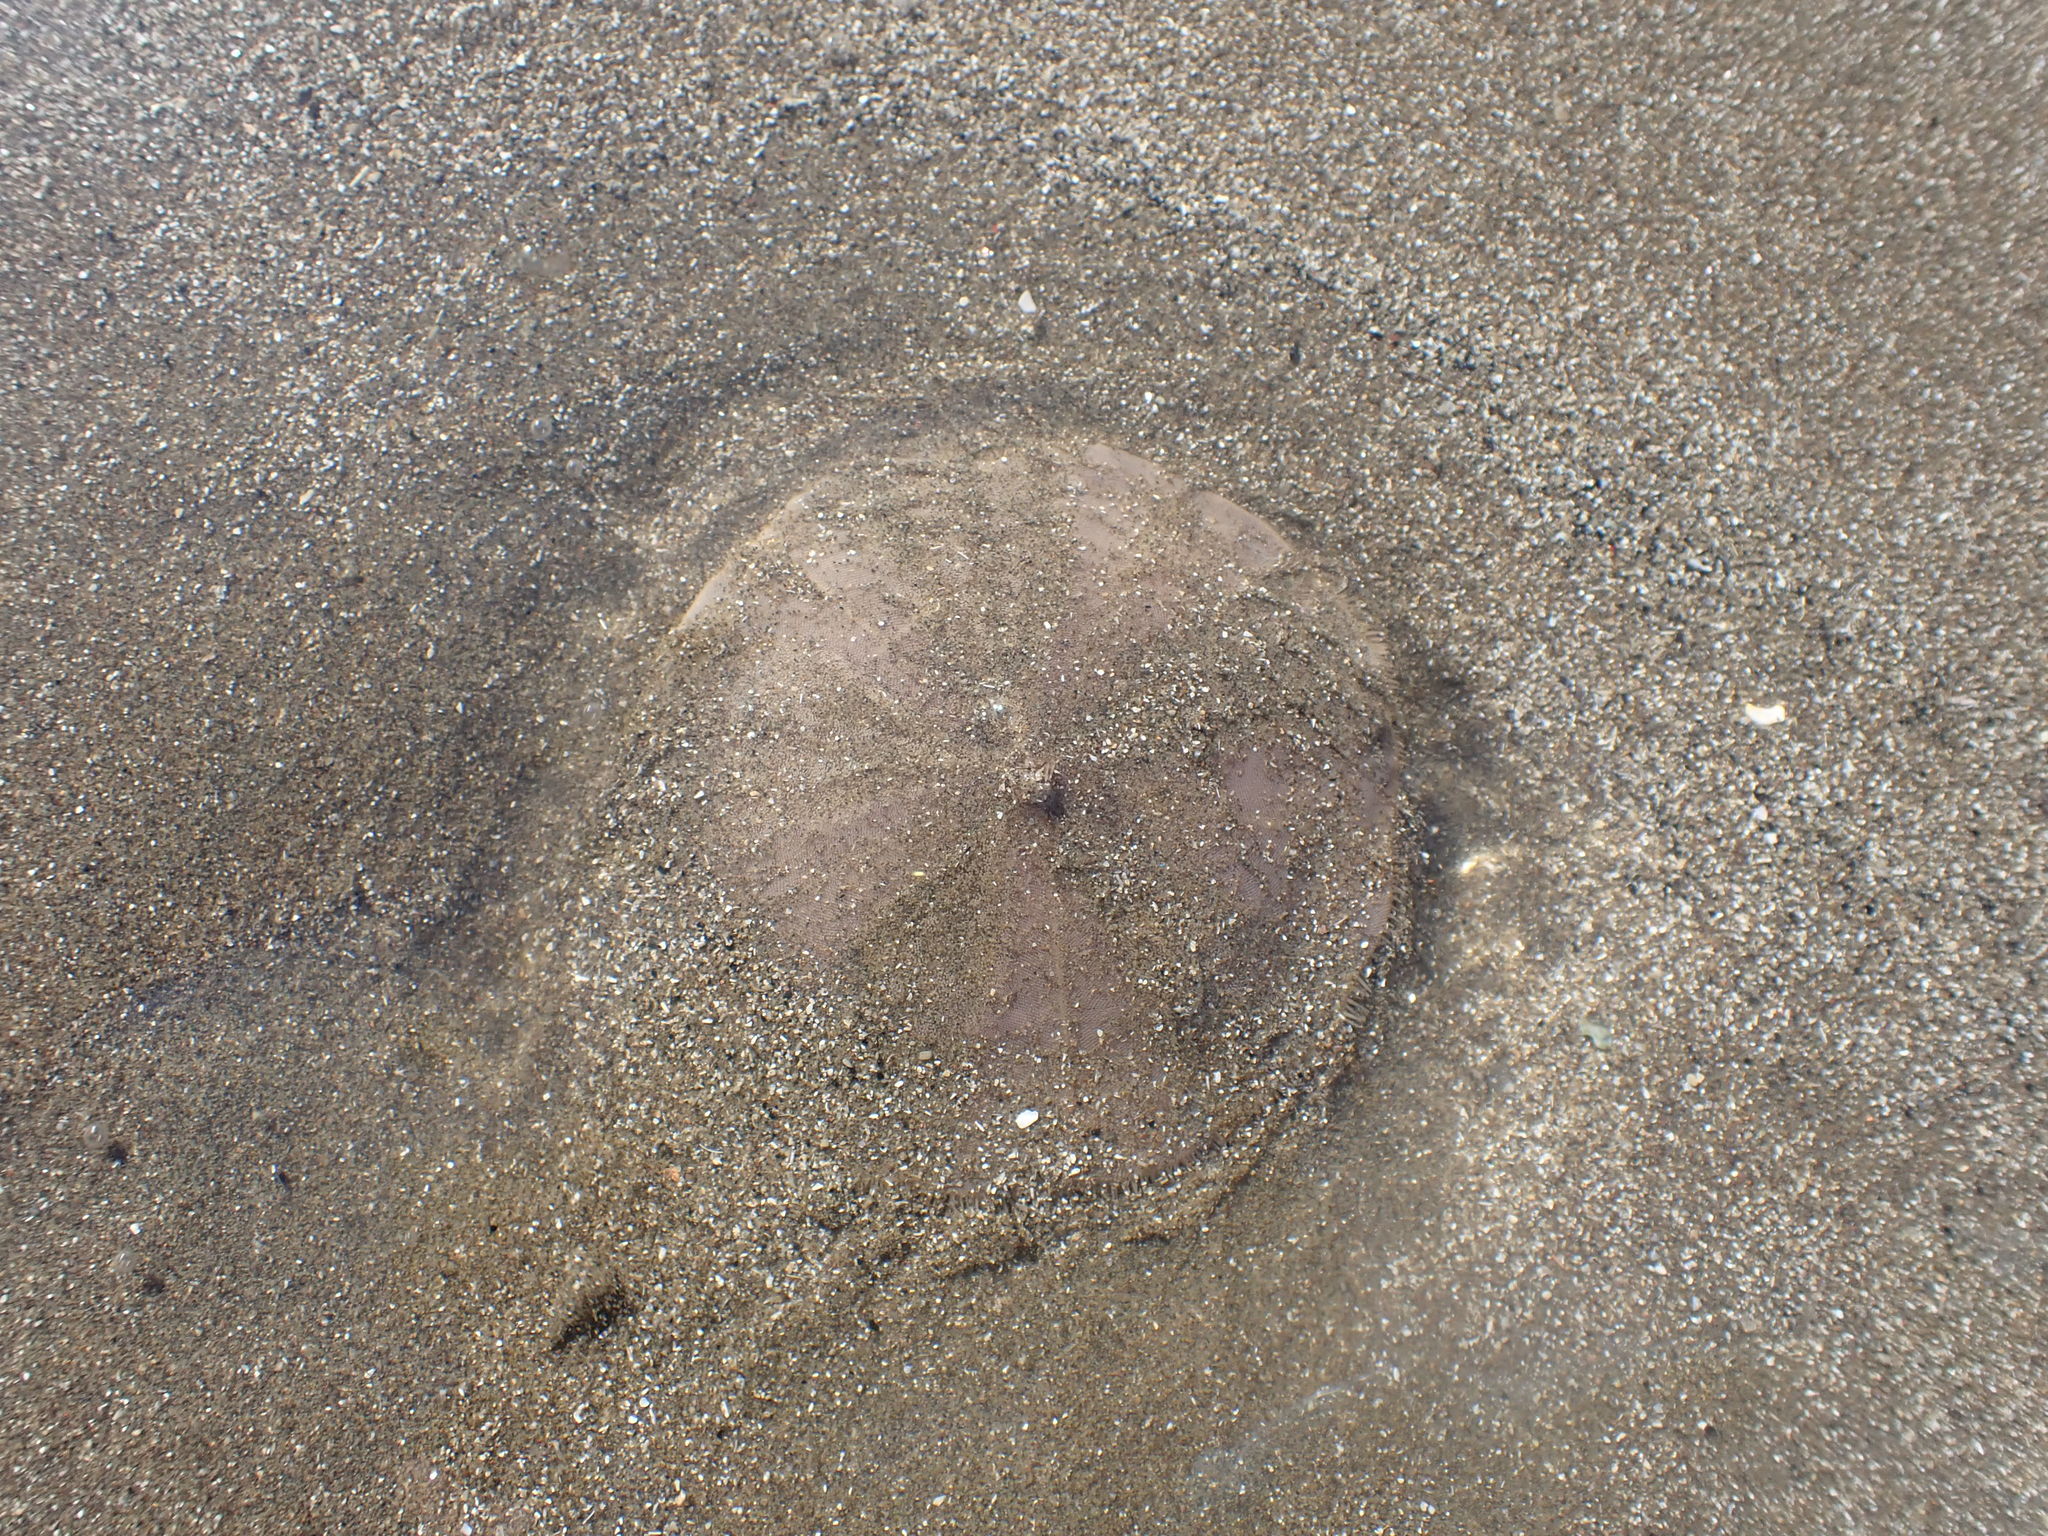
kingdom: Animalia
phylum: Echinodermata
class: Echinoidea
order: Clypeasteroida
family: Clypeasteridae
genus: Fellaster
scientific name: Fellaster zelandiae
